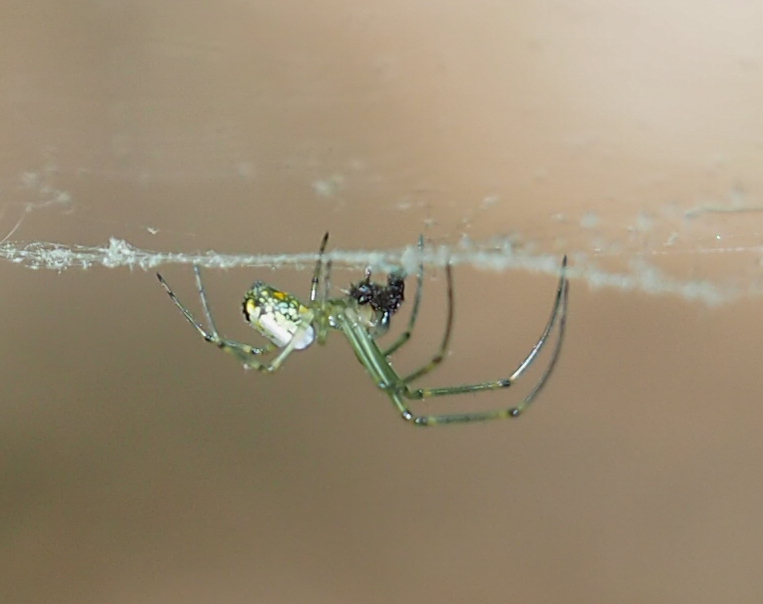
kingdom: Animalia
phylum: Arthropoda
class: Arachnida
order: Araneae
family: Tetragnathidae
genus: Leucauge
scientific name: Leucauge venusta
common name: Longjawed orb weavers
